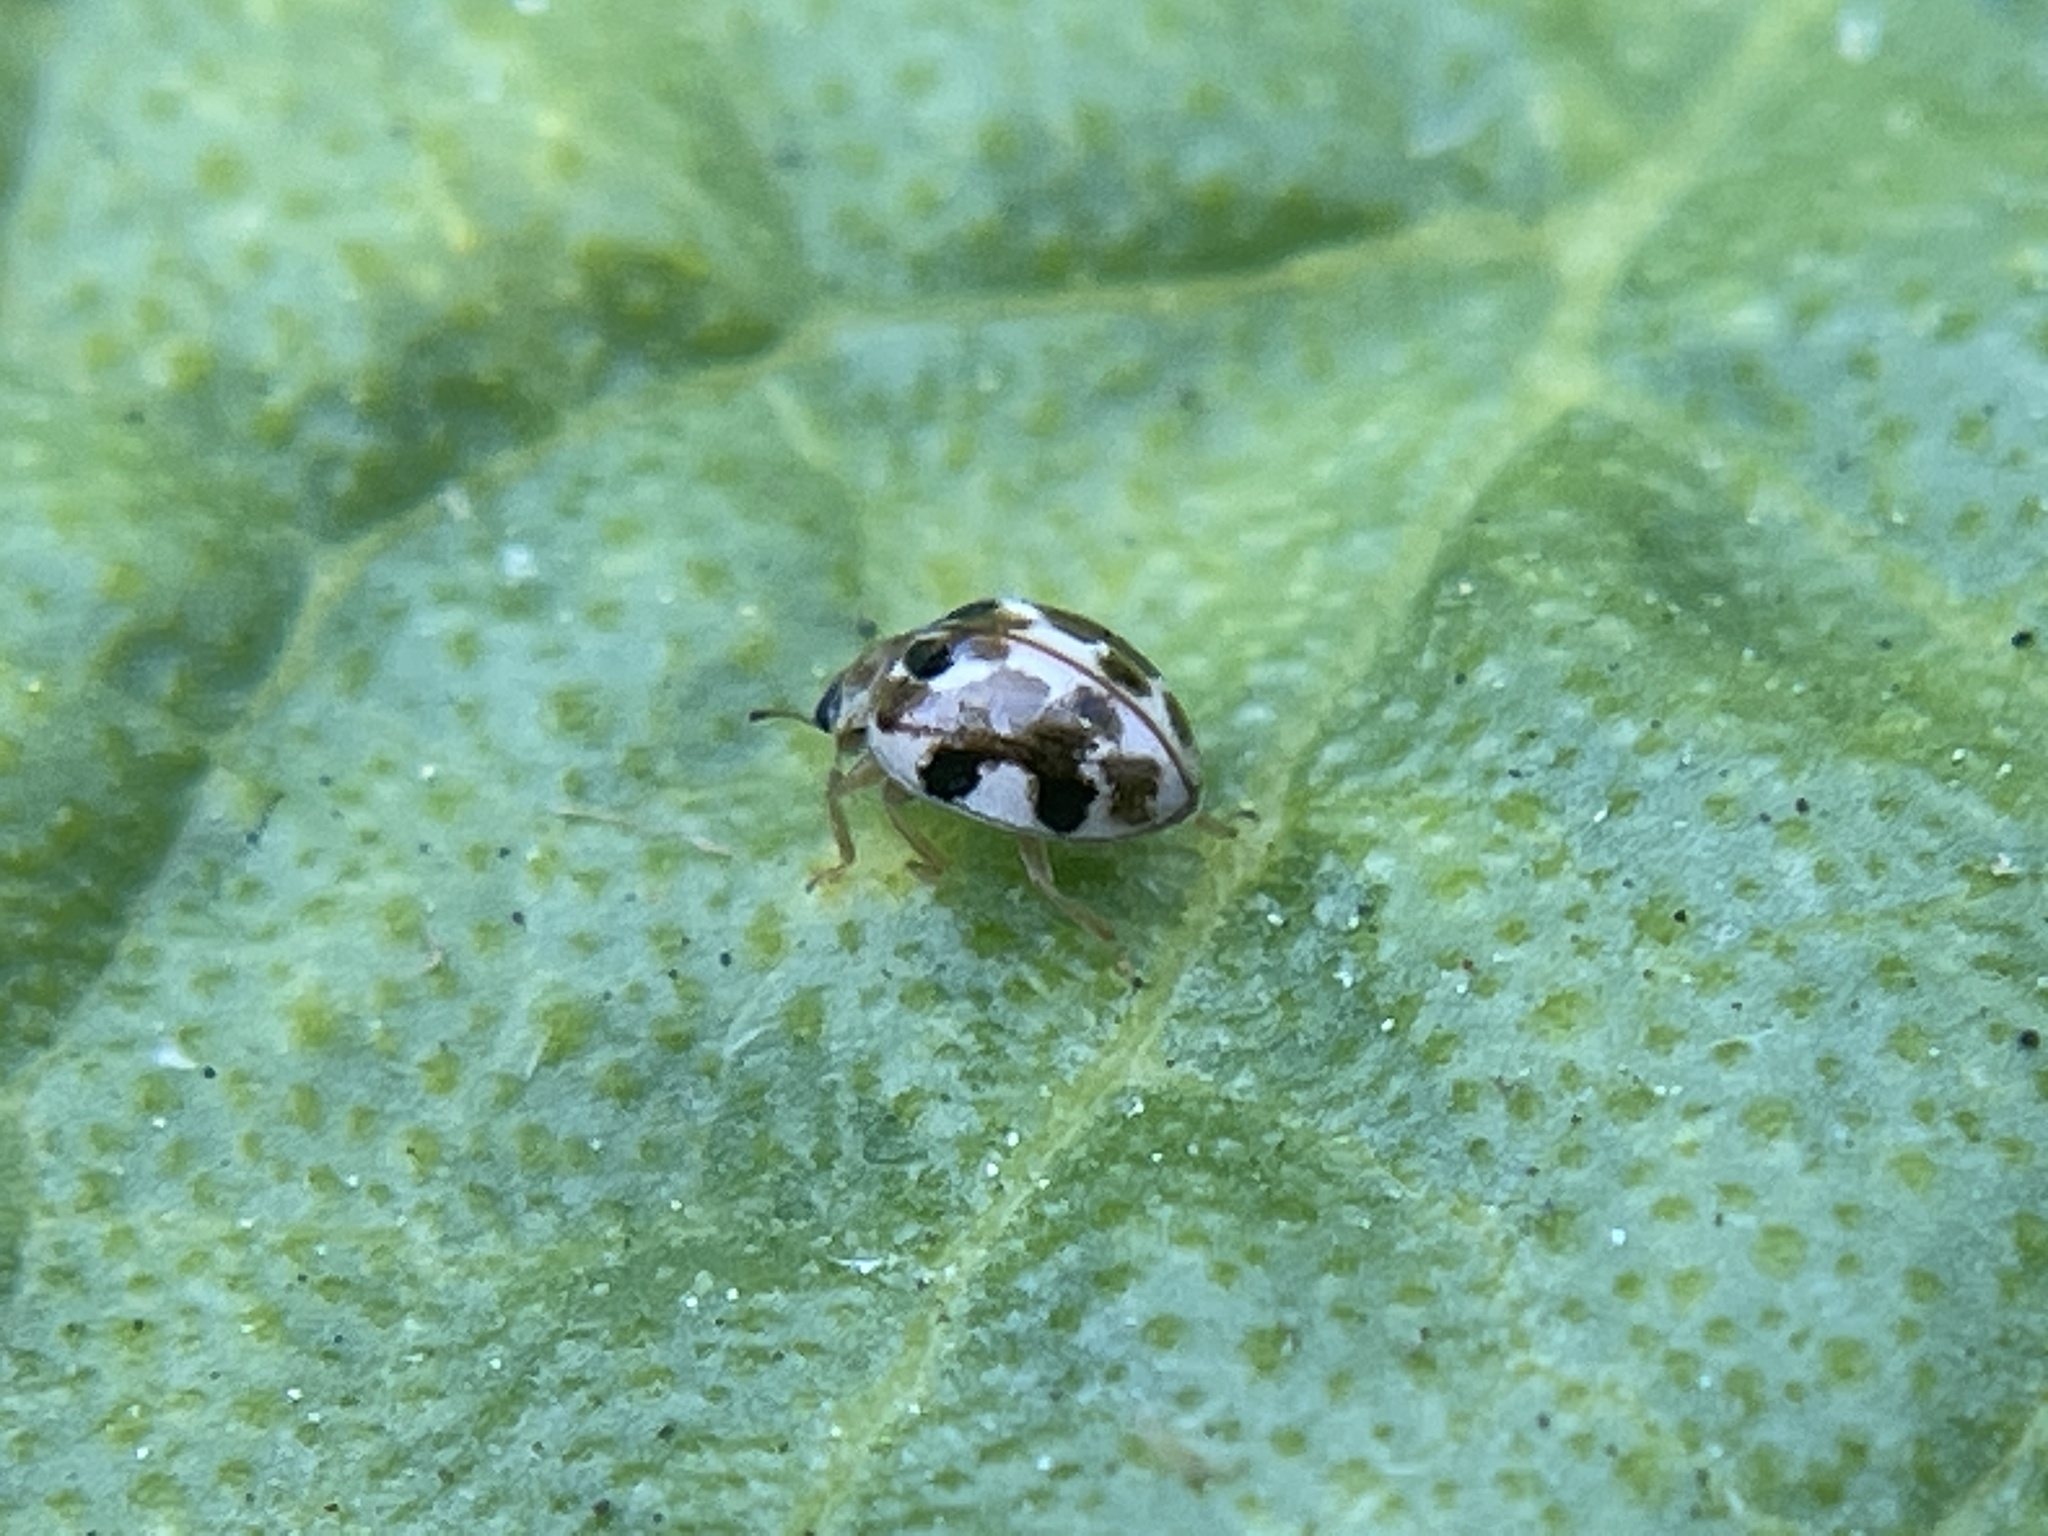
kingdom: Animalia
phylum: Arthropoda
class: Insecta
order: Coleoptera
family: Coccinellidae
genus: Psyllobora
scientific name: Psyllobora vigintimaculata
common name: Ladybird beetle
